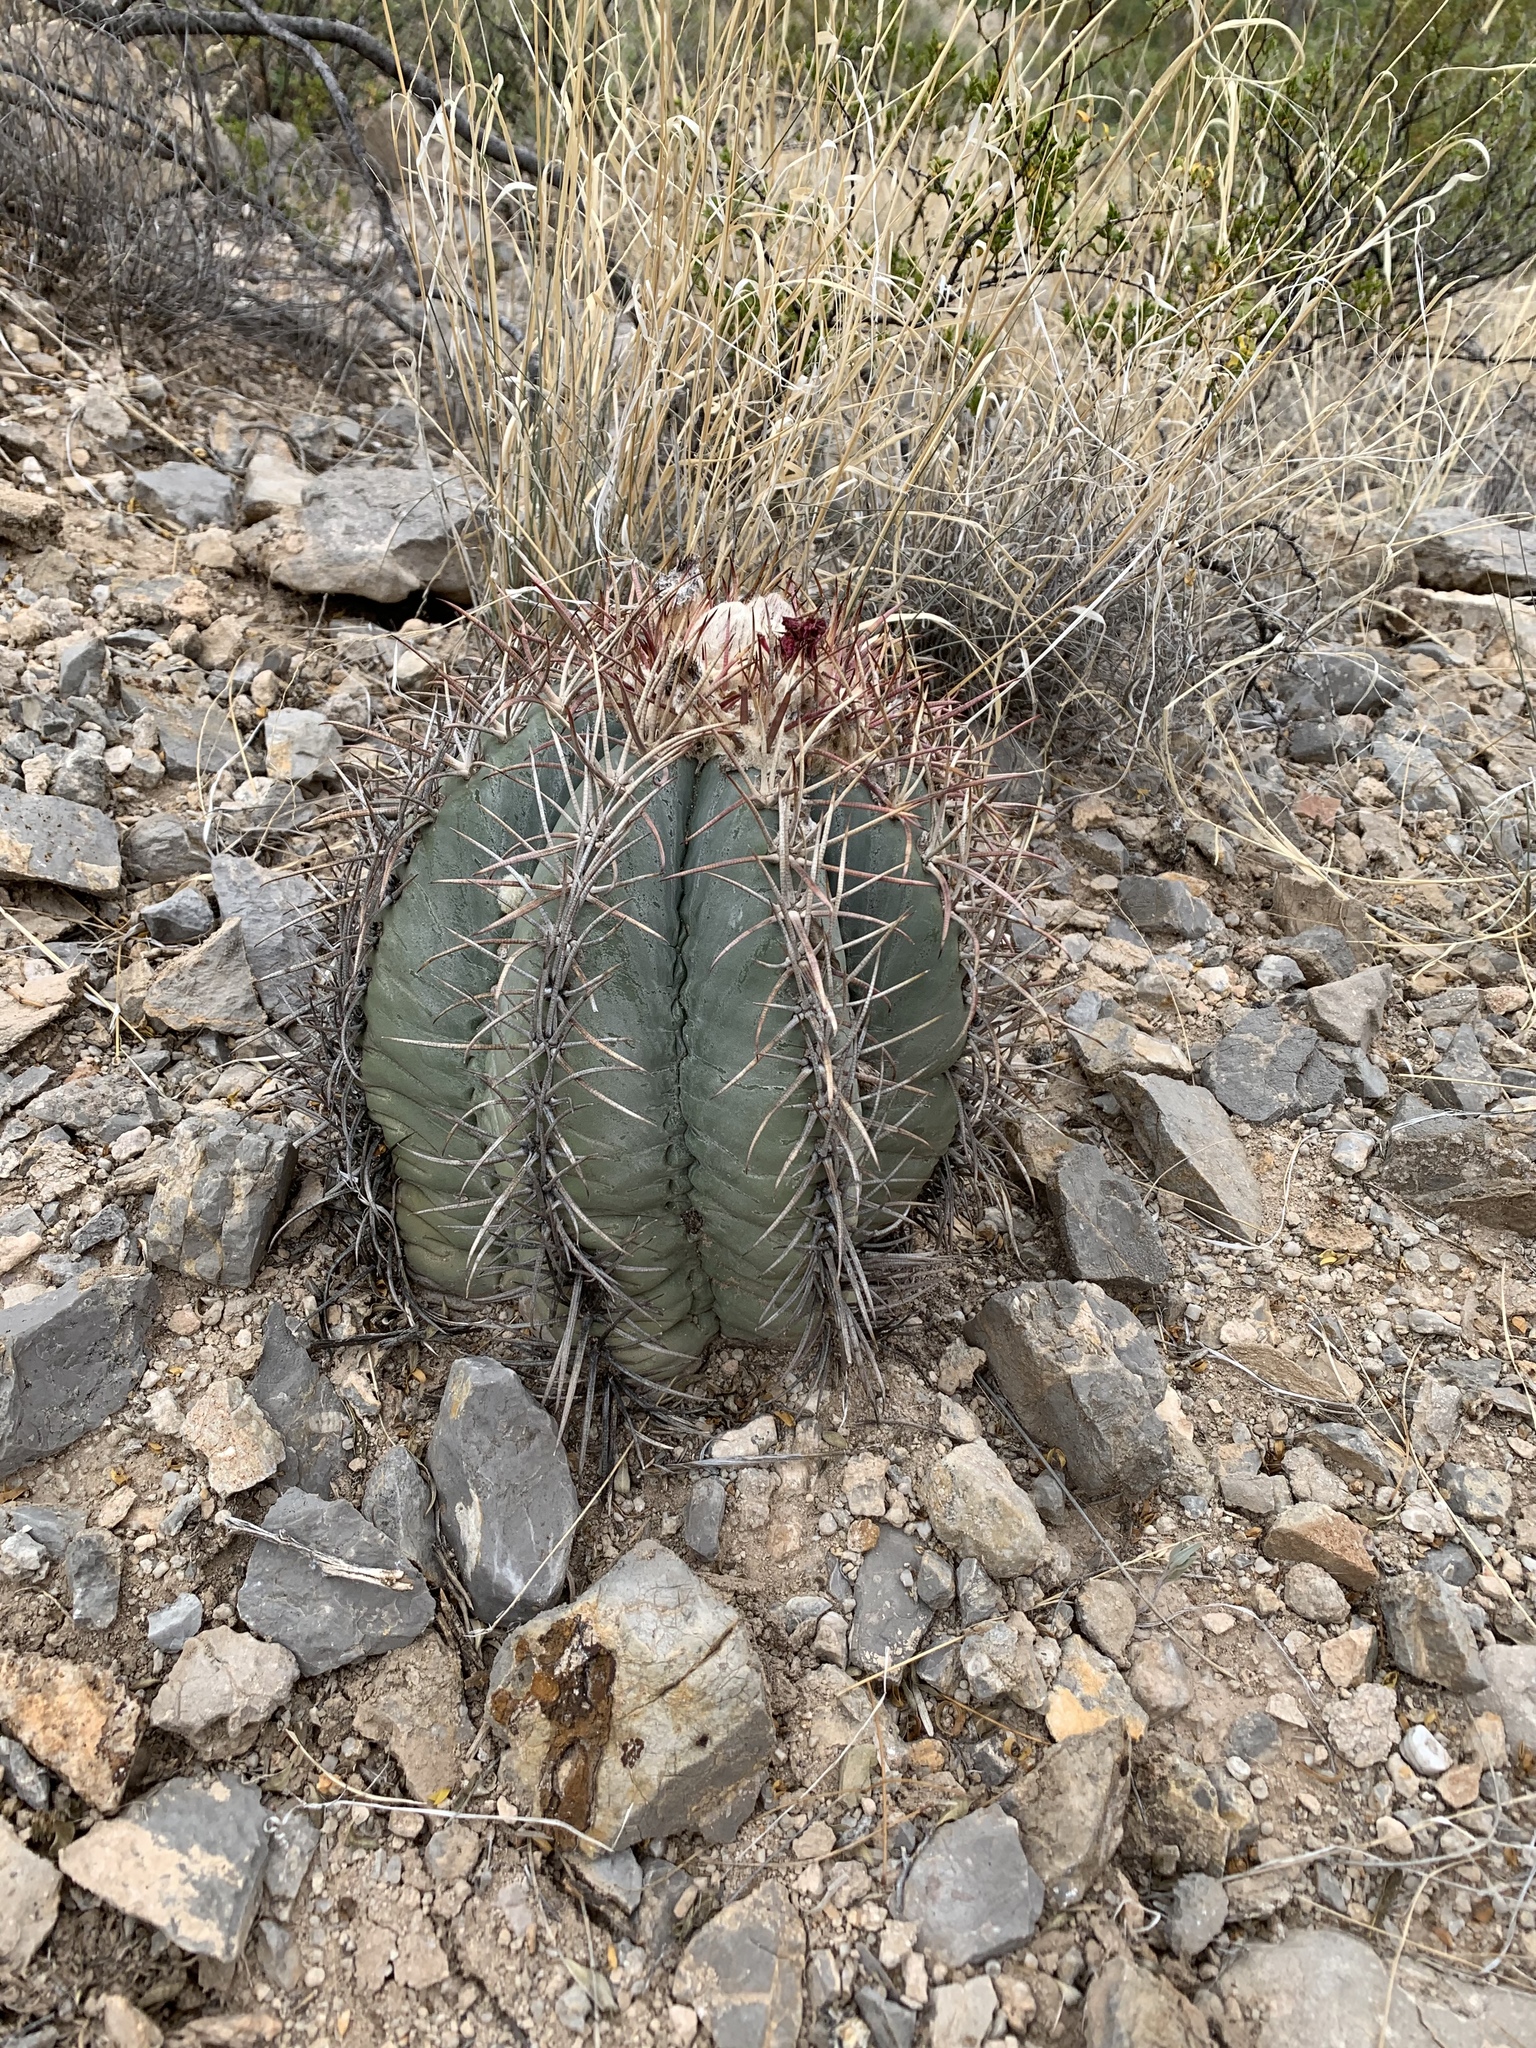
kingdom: Plantae
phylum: Tracheophyta
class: Magnoliopsida
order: Caryophyllales
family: Cactaceae
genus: Echinocactus
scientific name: Echinocactus horizonthalonius
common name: Devilshead
